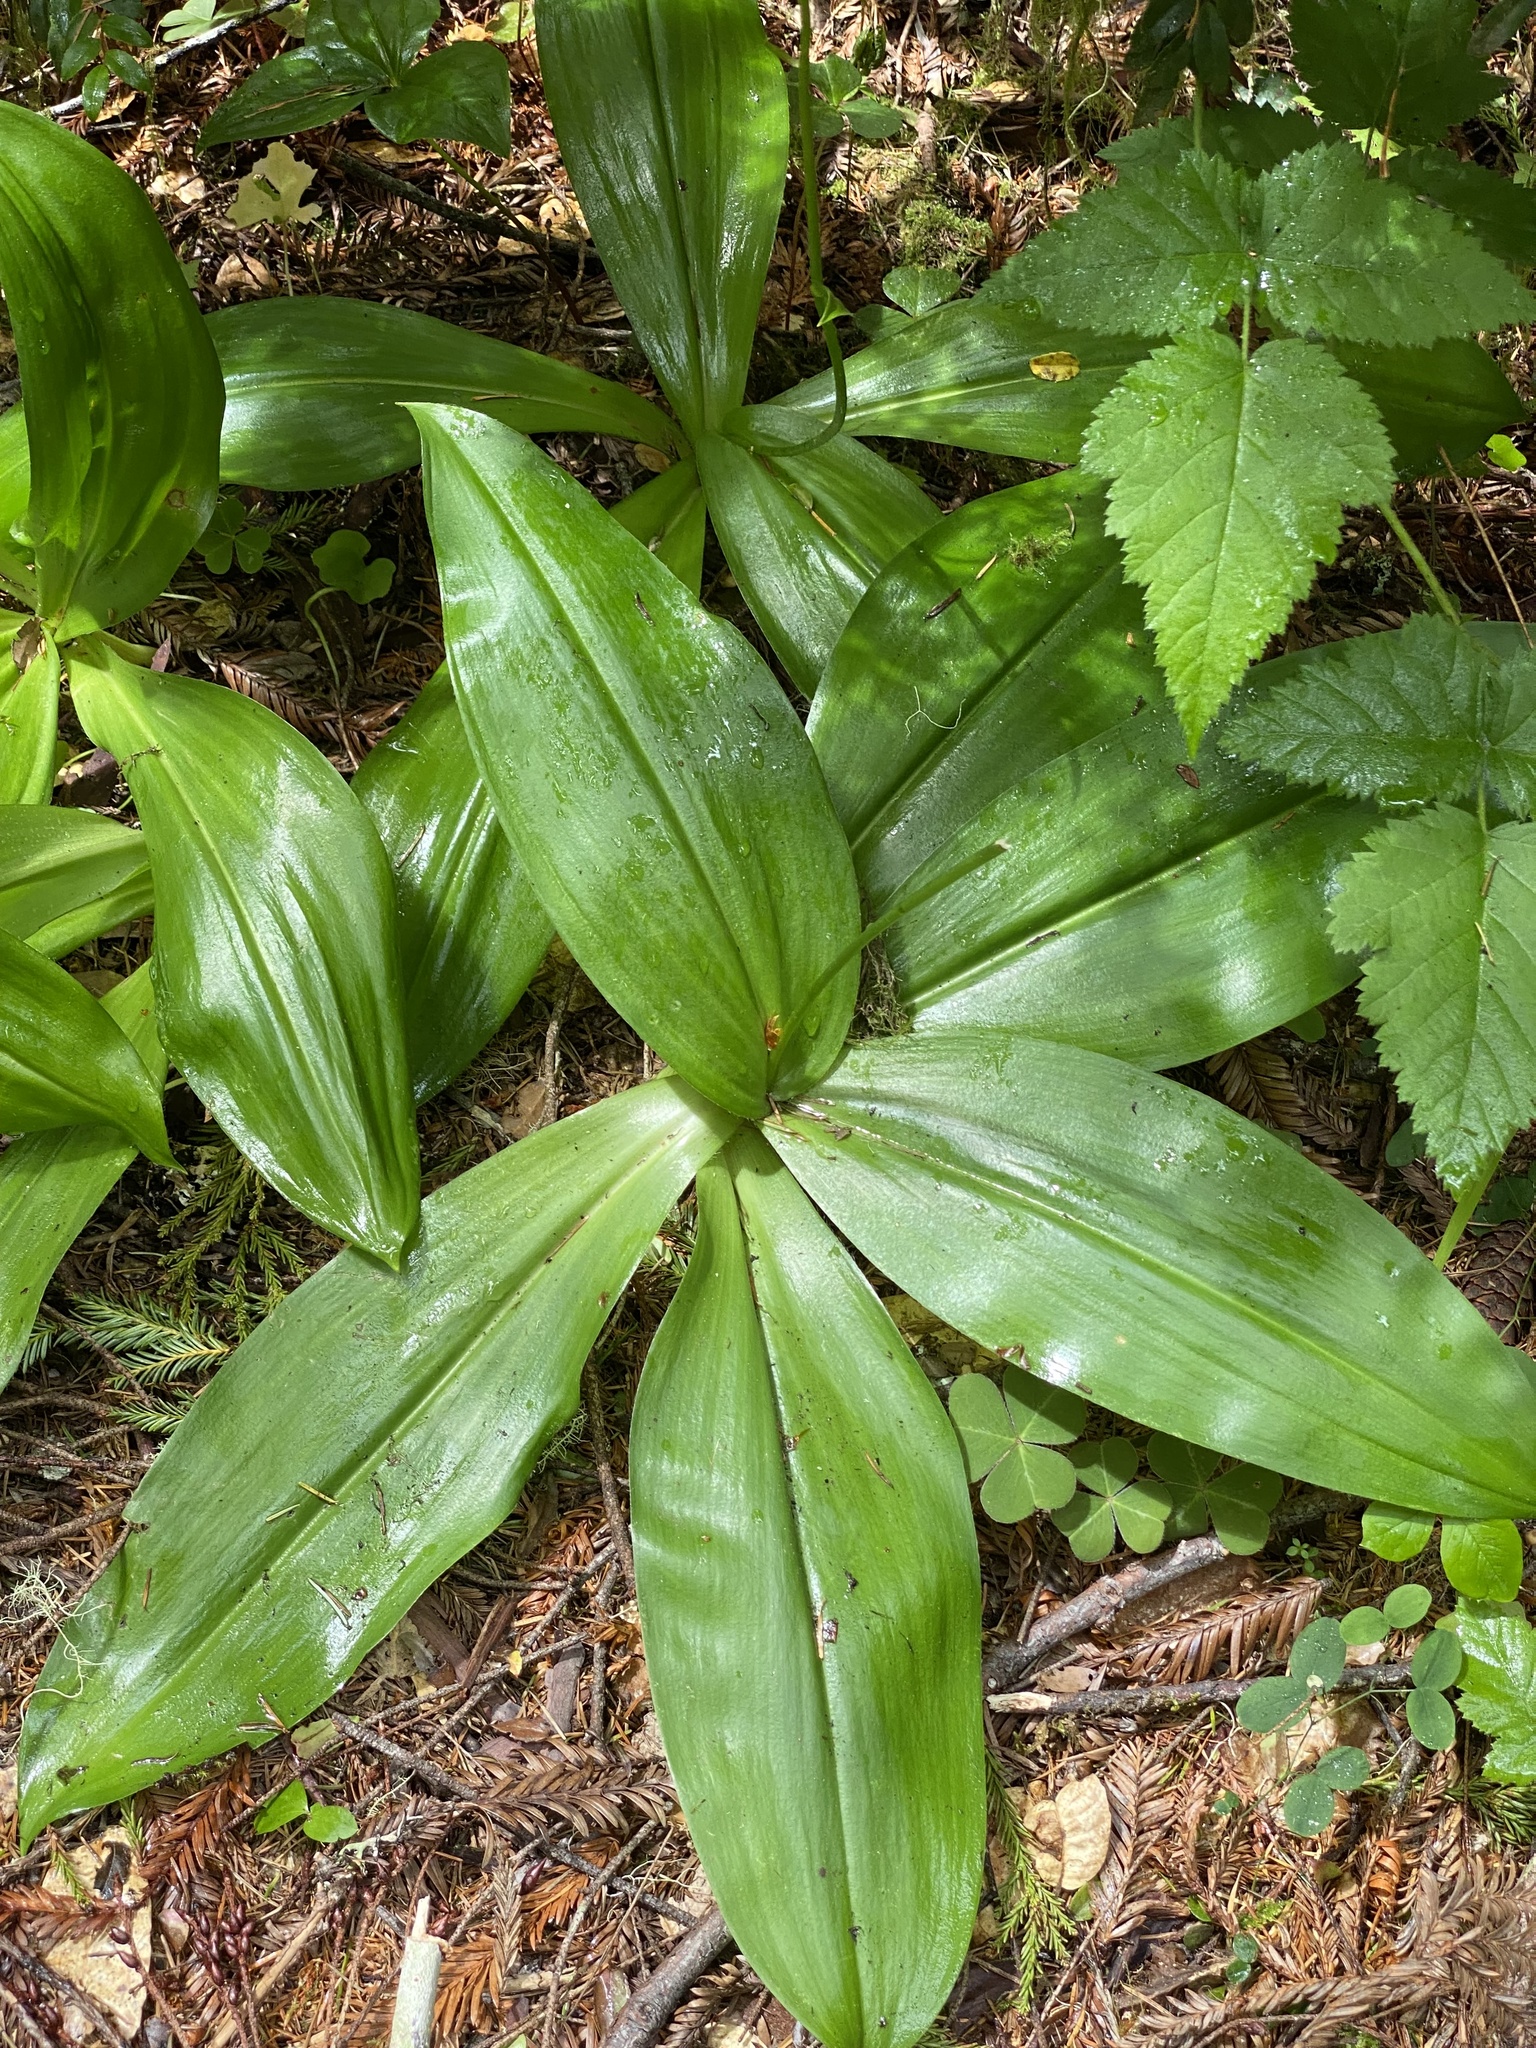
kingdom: Plantae
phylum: Tracheophyta
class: Liliopsida
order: Liliales
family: Liliaceae
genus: Clintonia
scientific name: Clintonia andrewsiana
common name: Red clintonia
